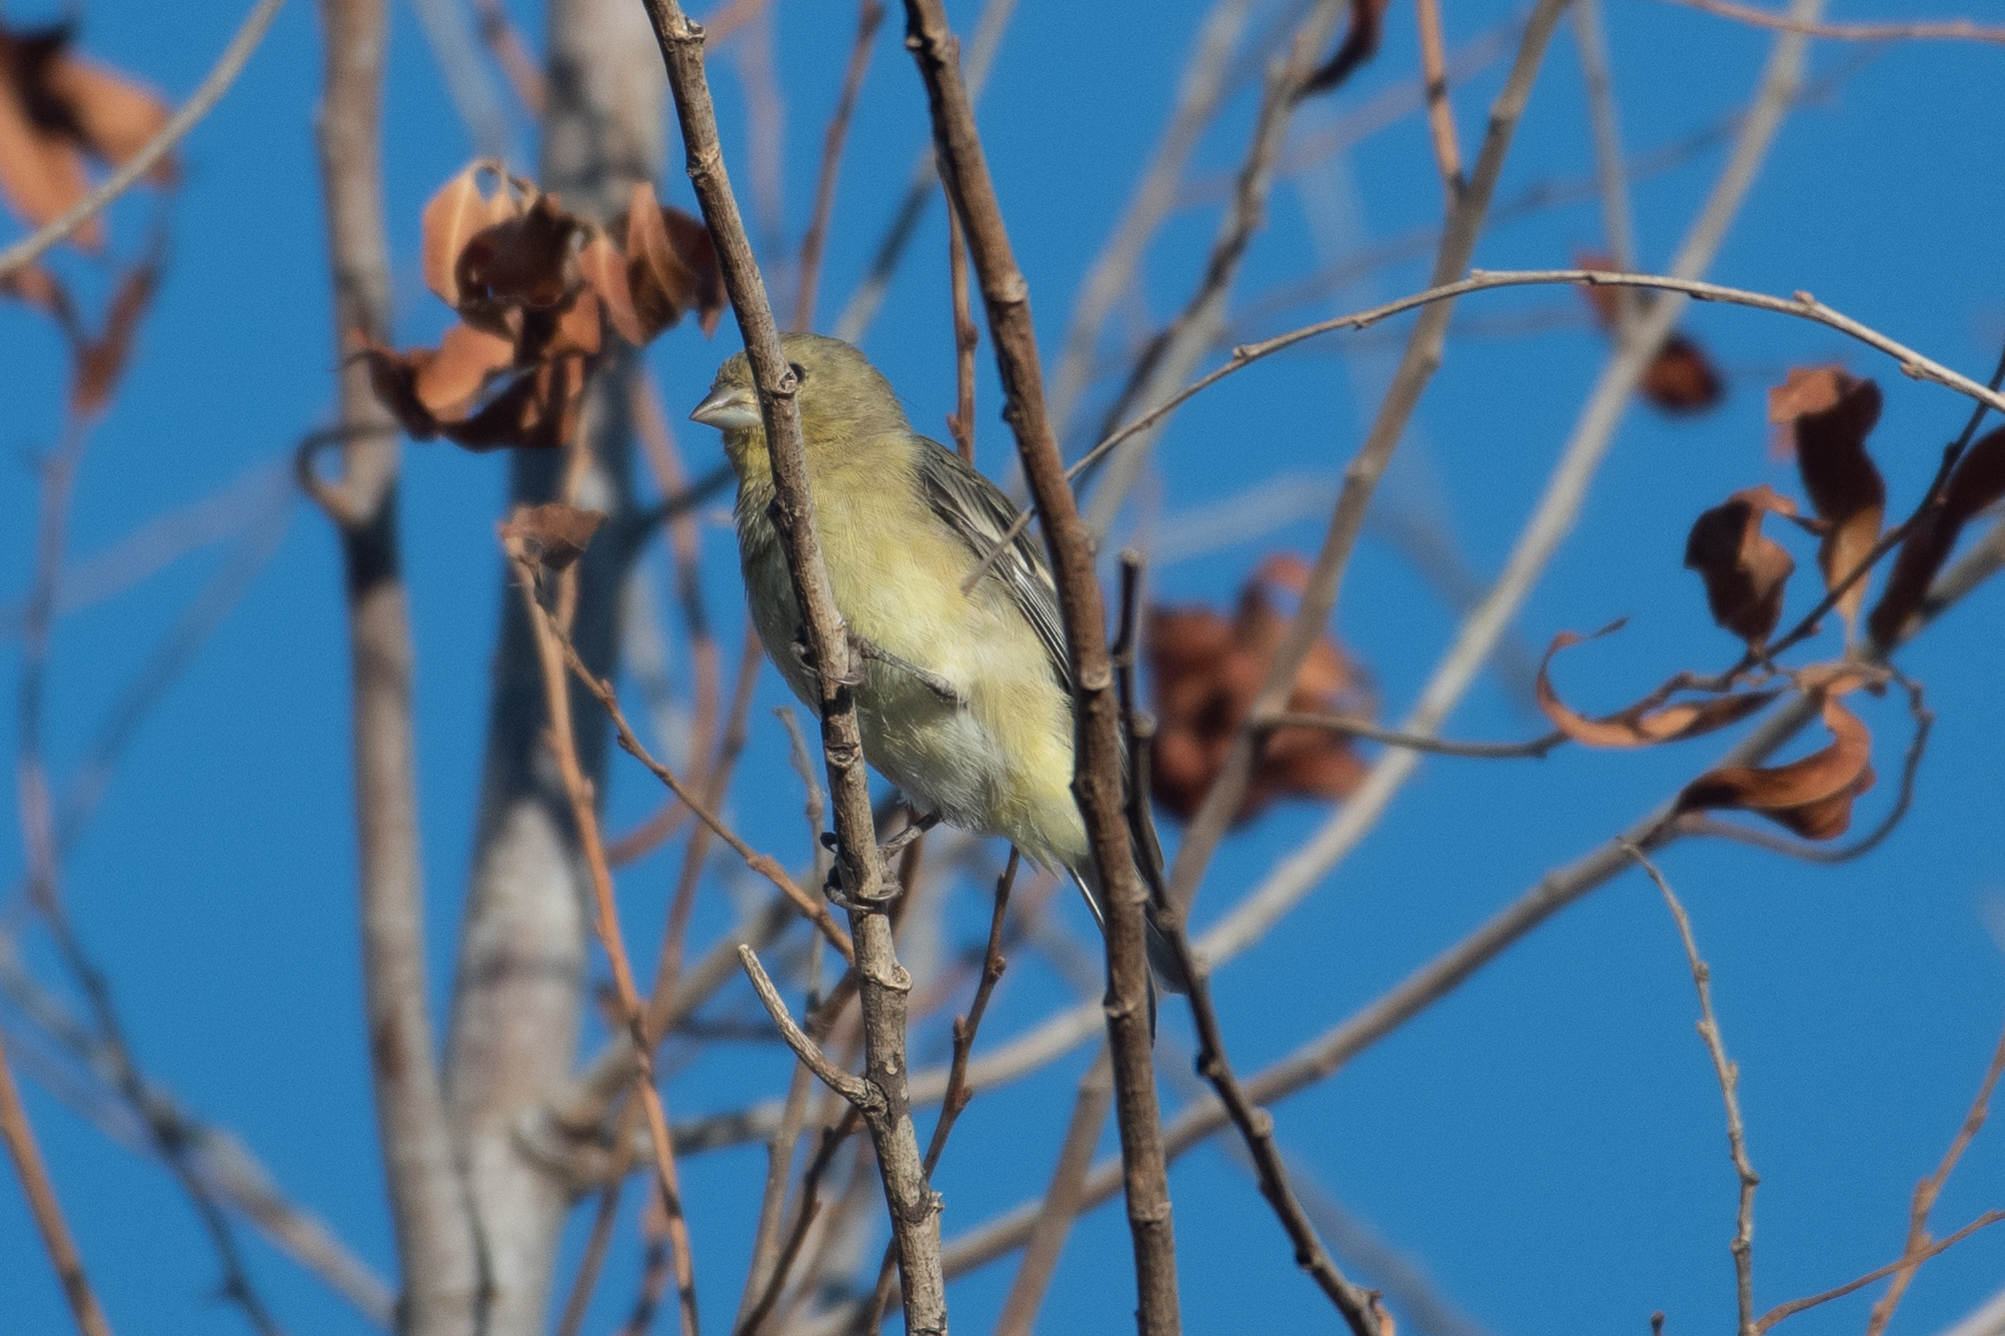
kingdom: Animalia
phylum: Chordata
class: Aves
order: Passeriformes
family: Fringillidae
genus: Spinus
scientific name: Spinus psaltria
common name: Lesser goldfinch
